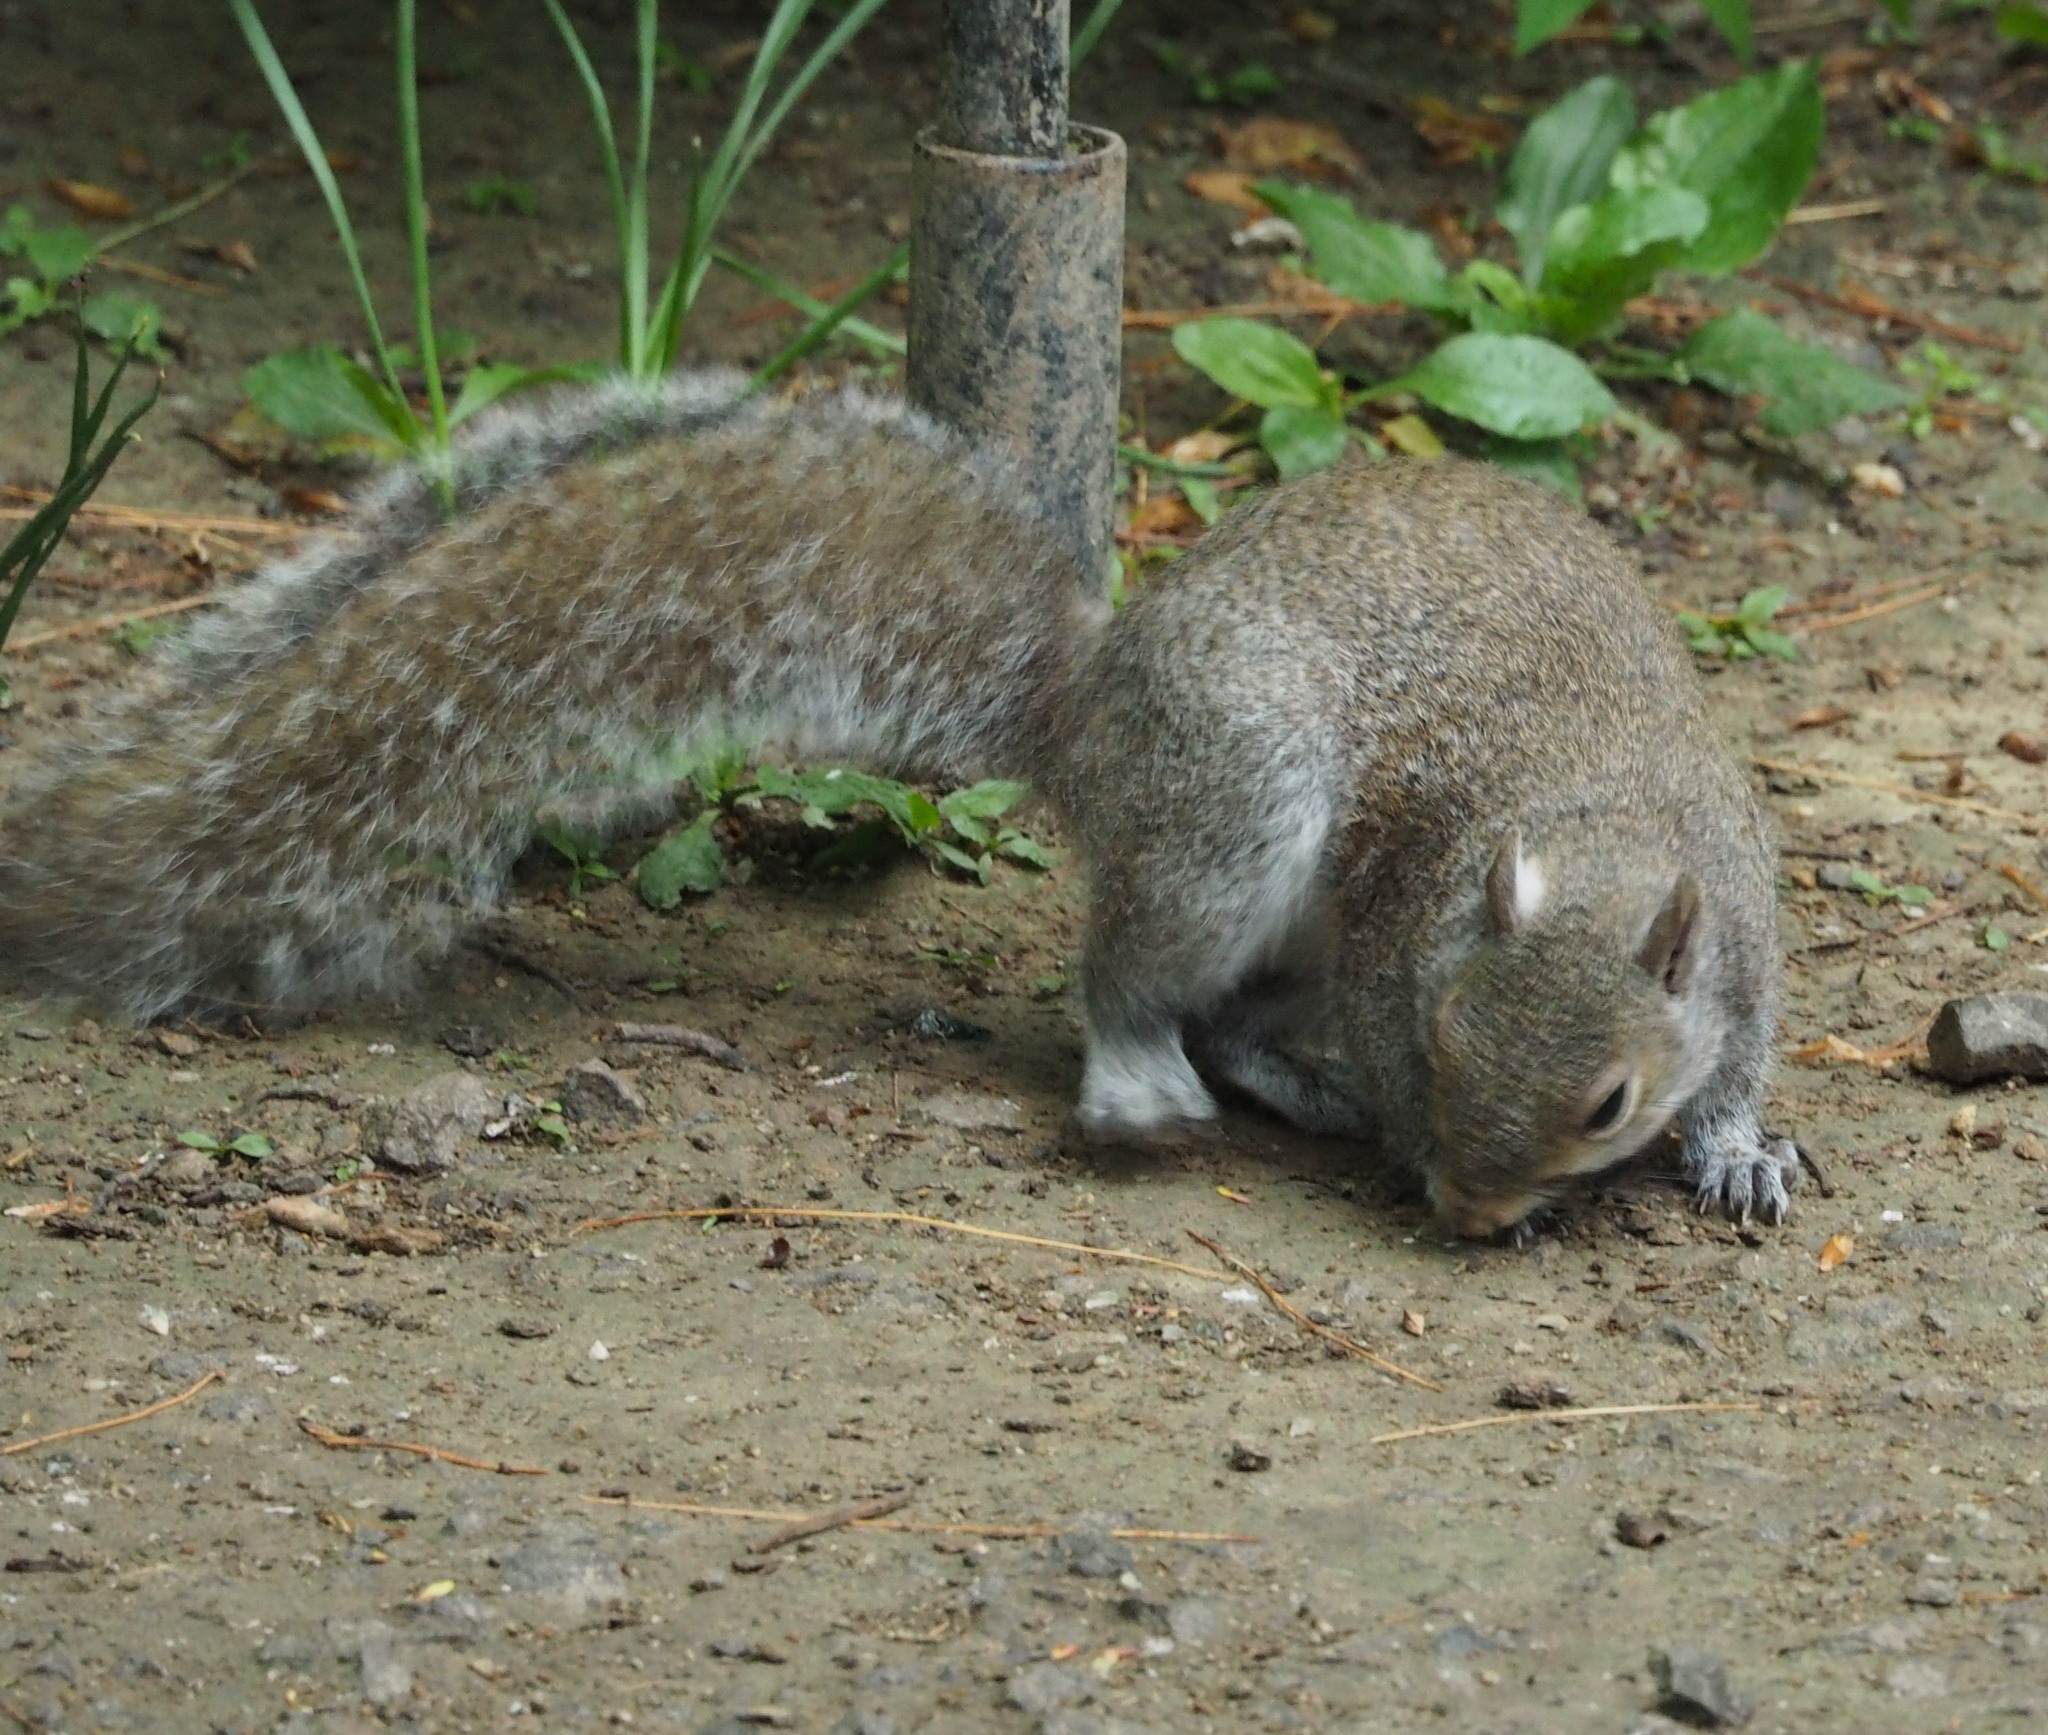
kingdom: Animalia
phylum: Chordata
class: Mammalia
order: Rodentia
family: Sciuridae
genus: Sciurus
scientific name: Sciurus carolinensis
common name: Eastern gray squirrel
